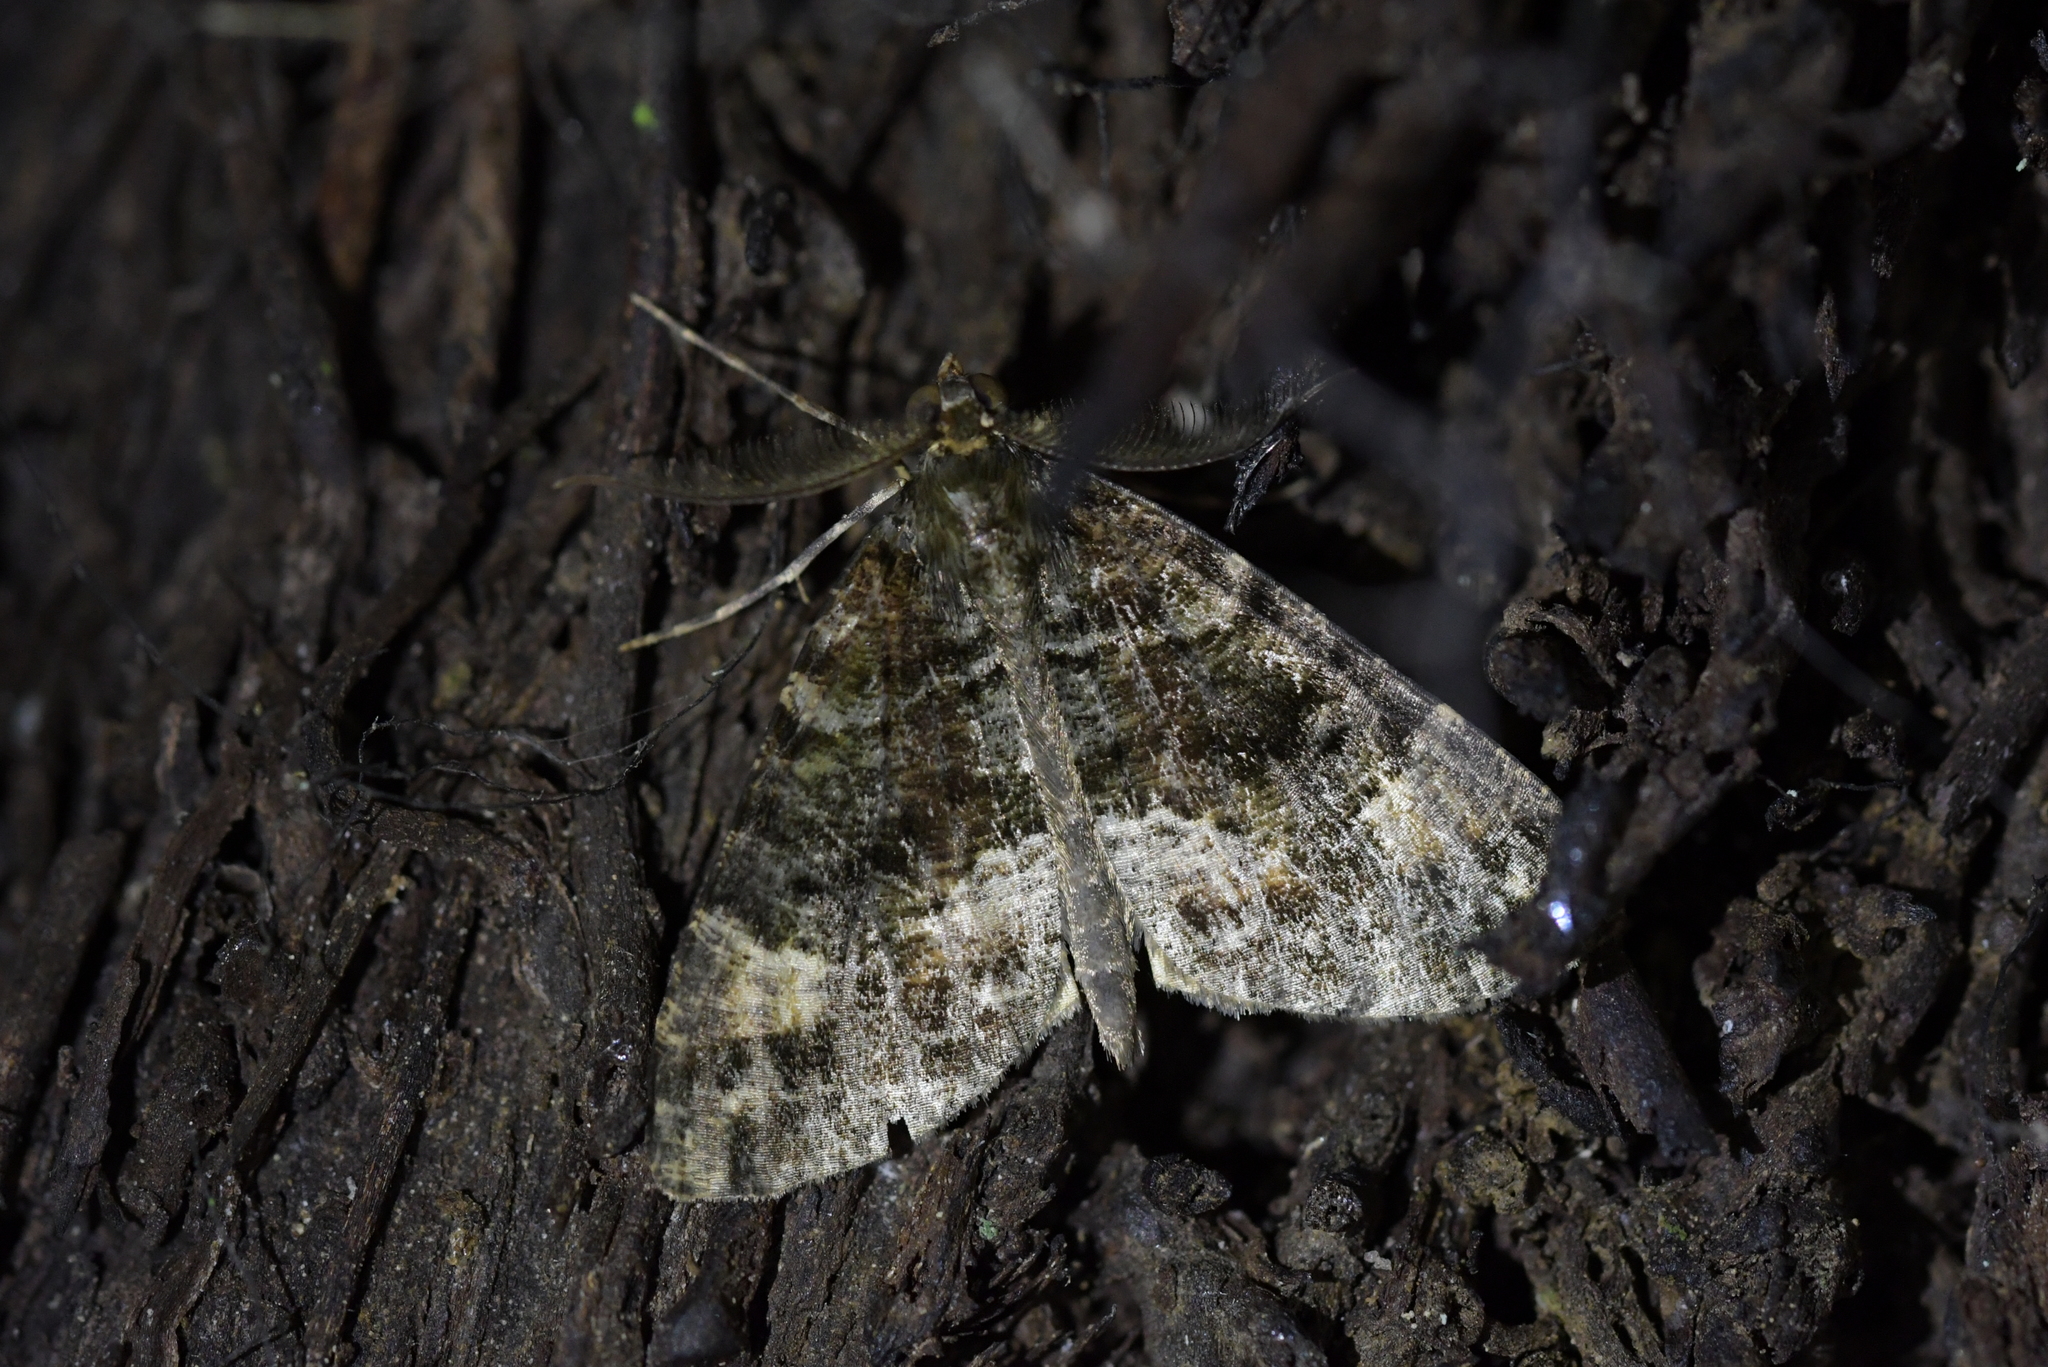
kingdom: Animalia
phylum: Arthropoda
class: Insecta
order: Lepidoptera
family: Geometridae
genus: Pseudocoremia
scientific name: Pseudocoremia productata
